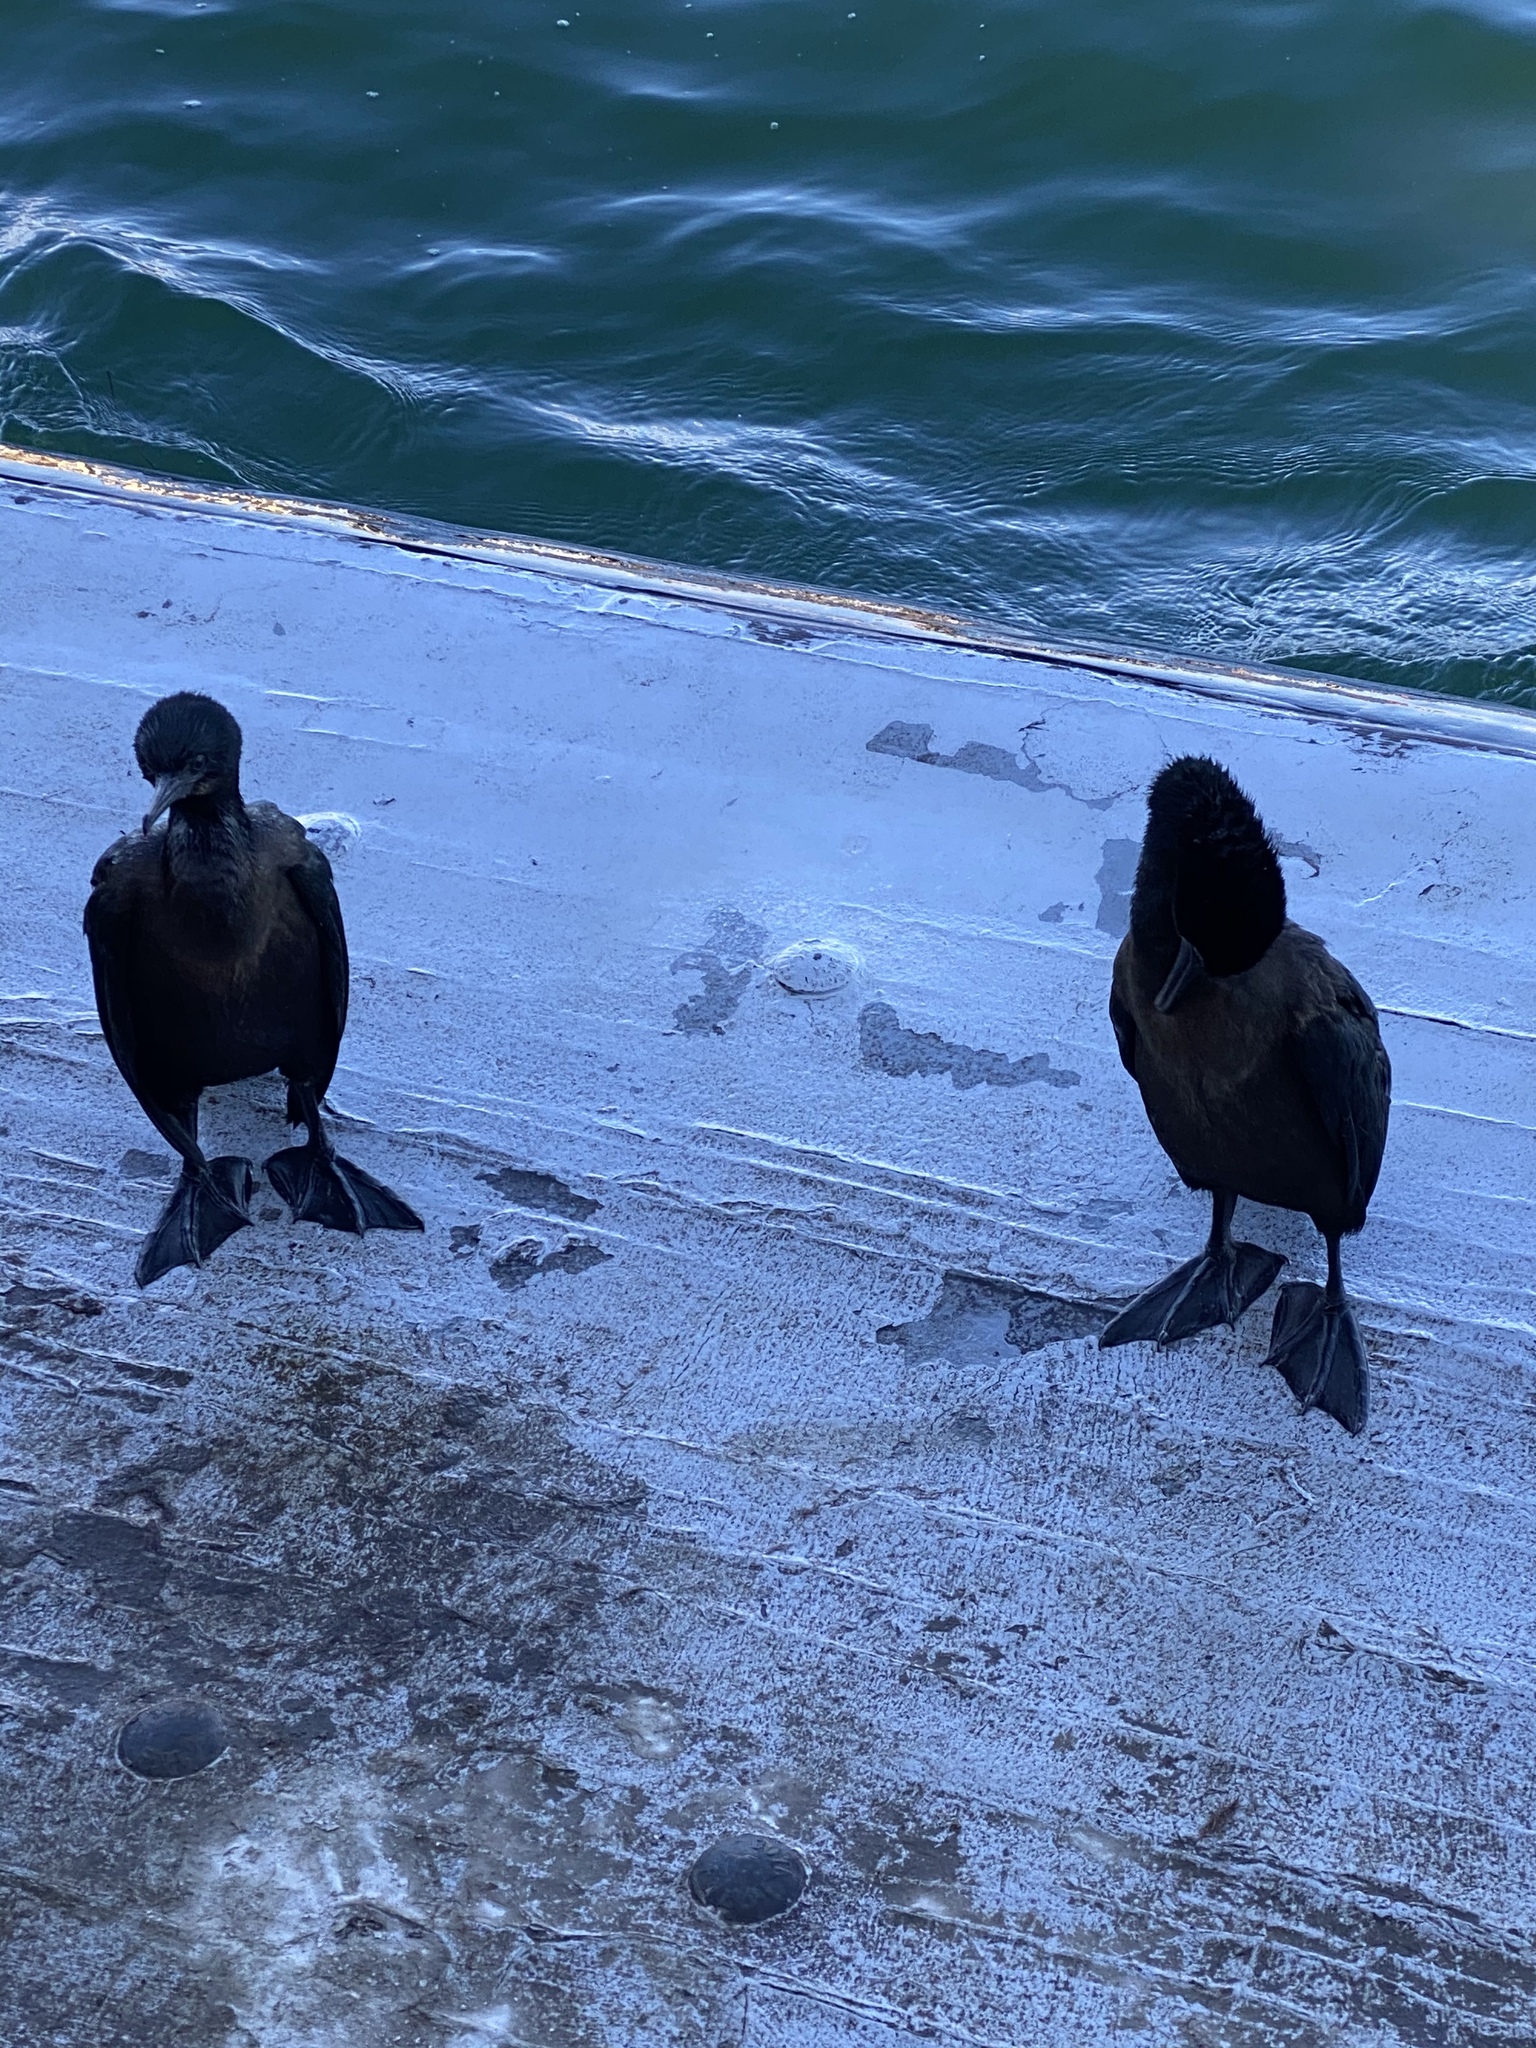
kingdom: Animalia
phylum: Chordata
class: Aves
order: Suliformes
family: Phalacrocoracidae
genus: Urile
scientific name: Urile penicillatus
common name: Brandt's cormorant
